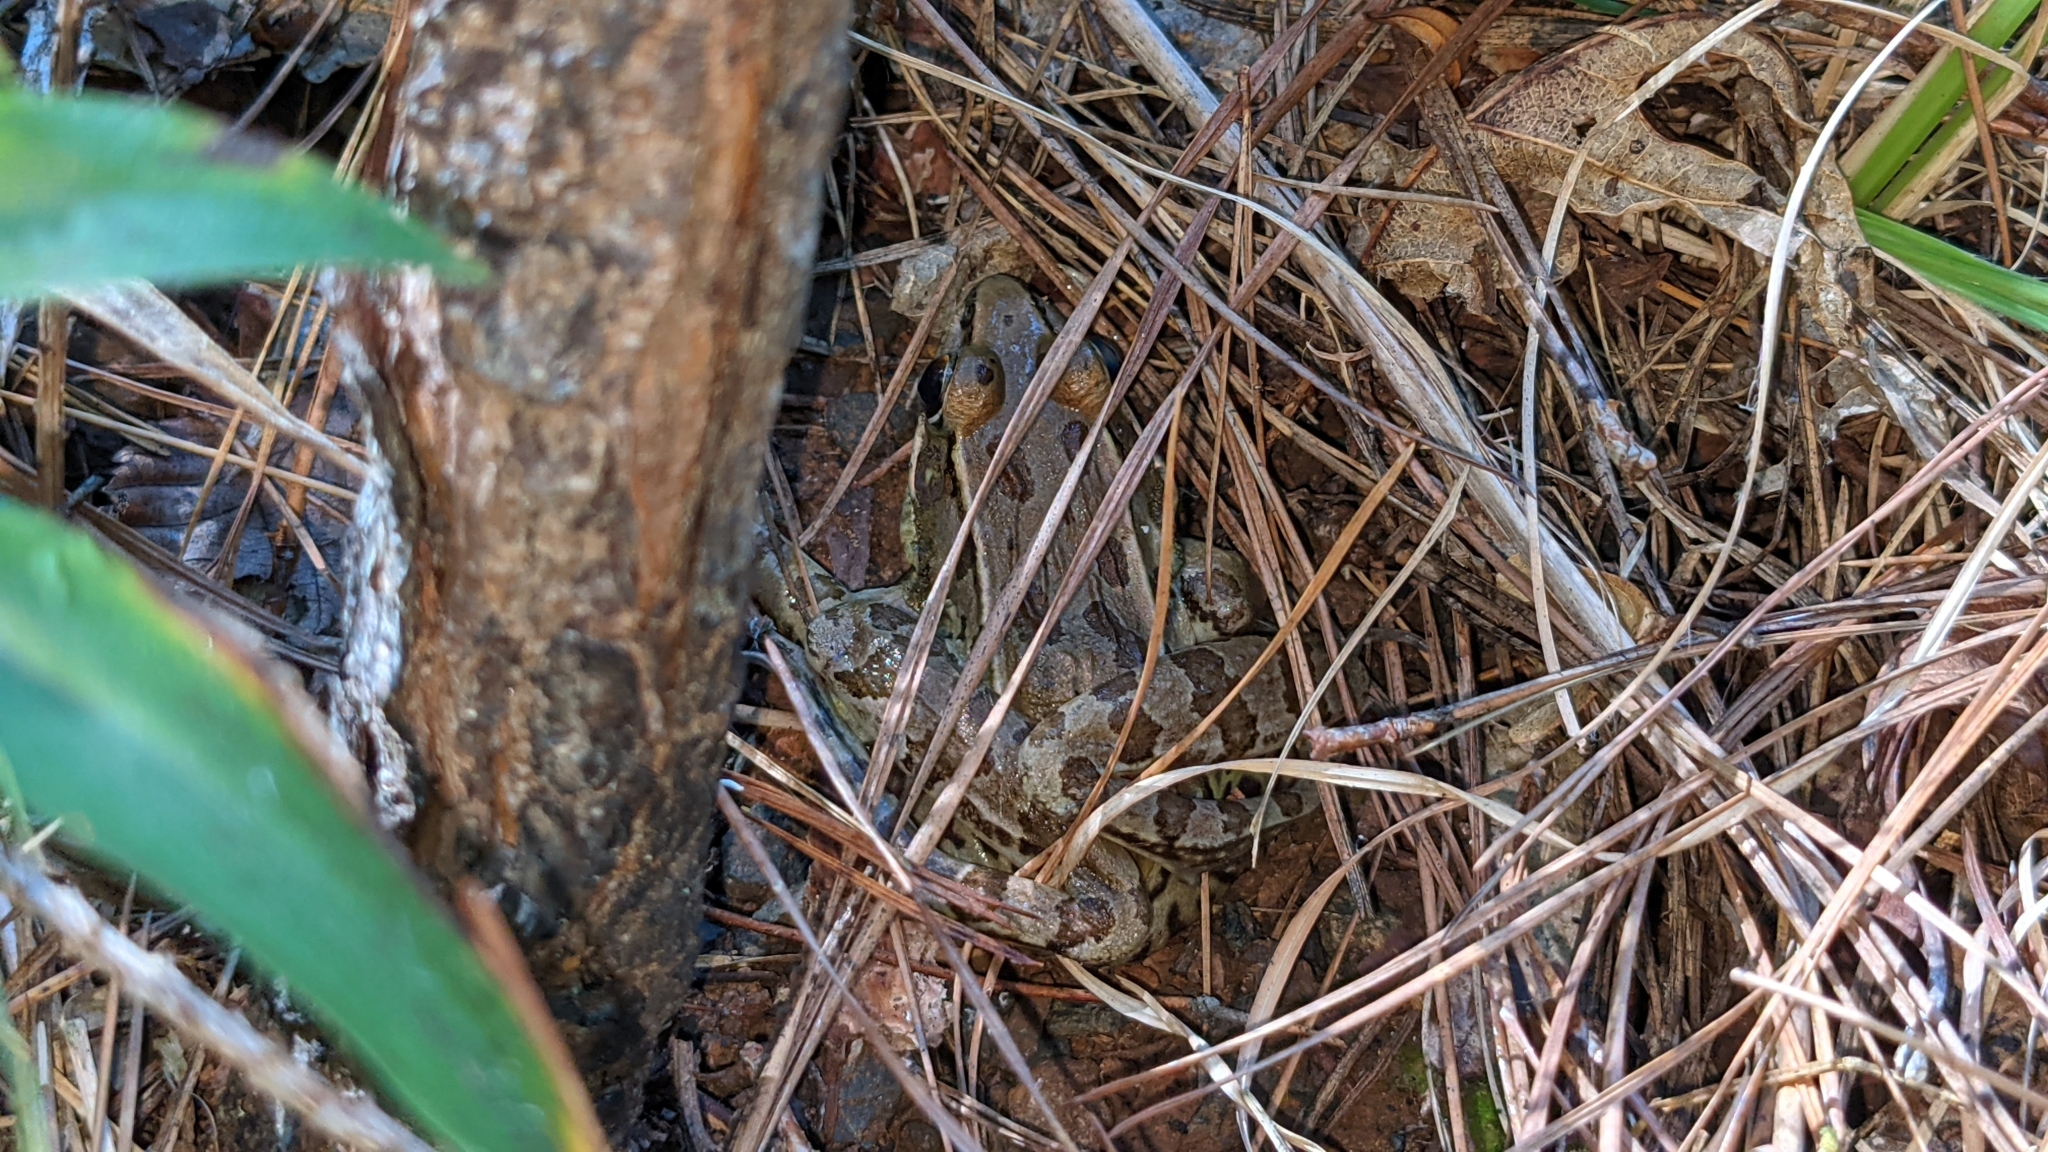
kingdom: Animalia
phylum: Chordata
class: Amphibia
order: Anura
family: Ranidae
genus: Lithobates
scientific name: Lithobates sphenocephalus
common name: Southern leopard frog
